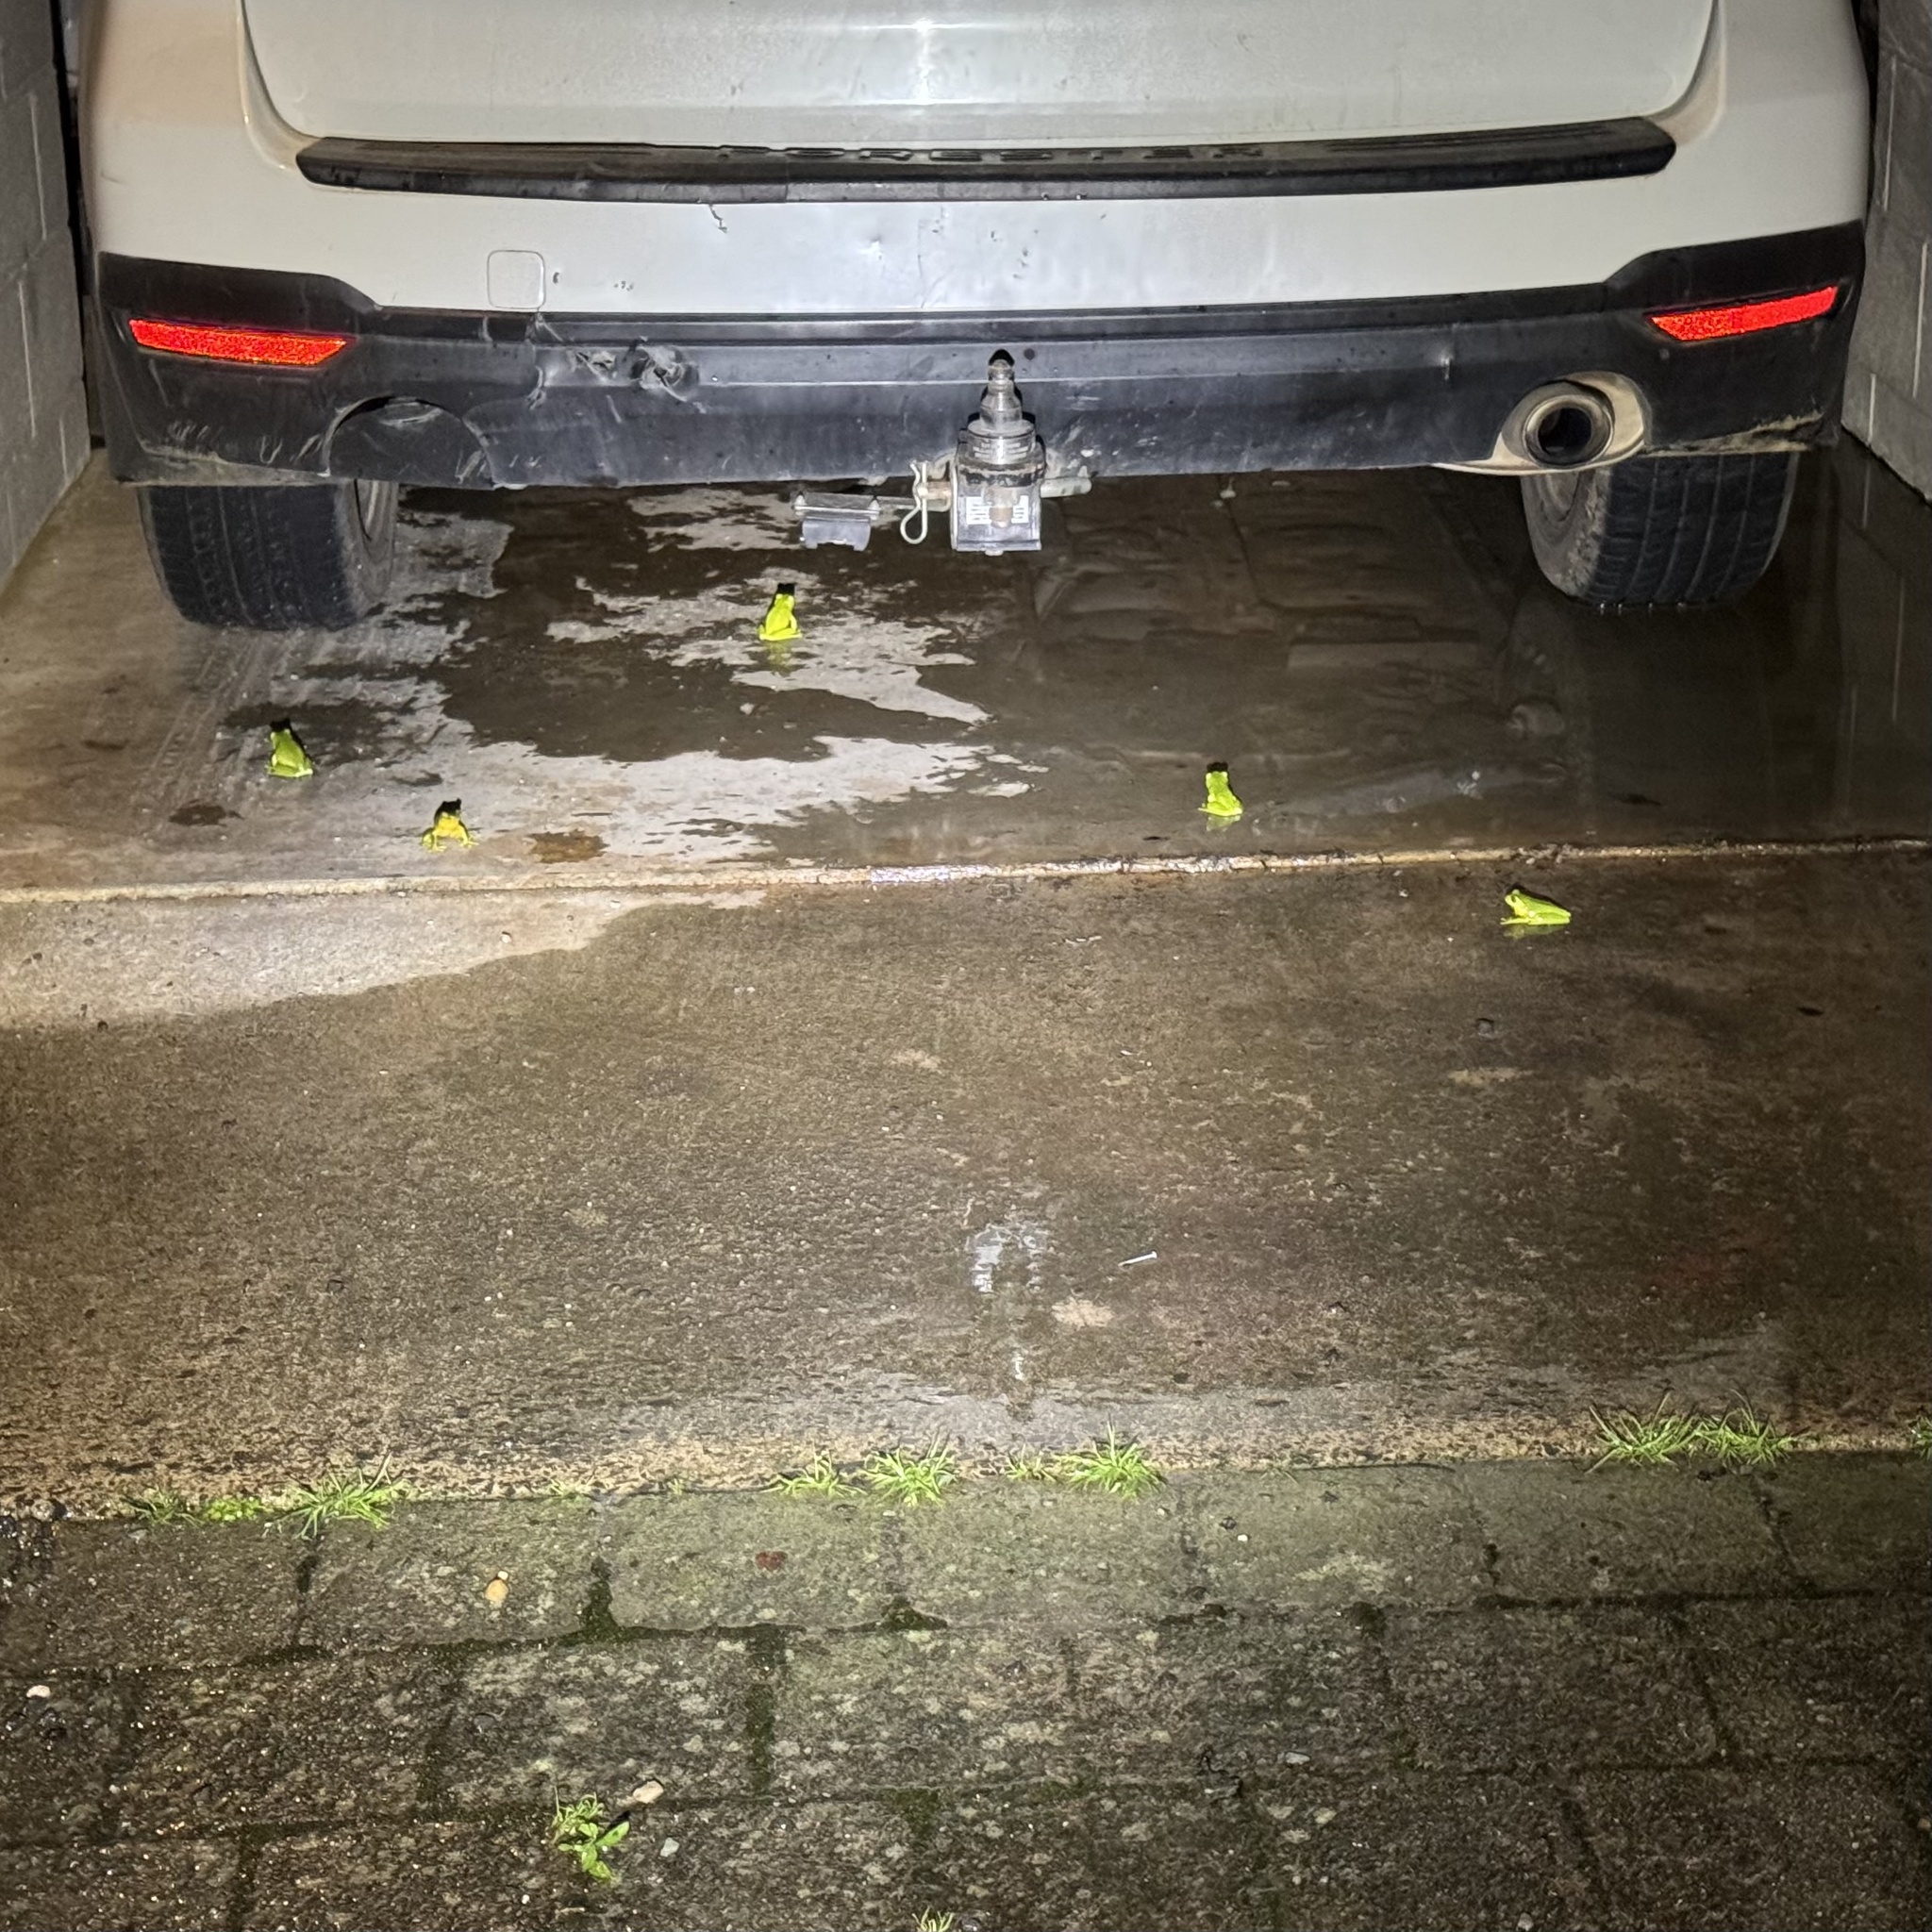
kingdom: Animalia
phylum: Chordata
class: Amphibia
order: Anura
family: Pelodryadidae
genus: Ranoidea
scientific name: Ranoidea chloris
